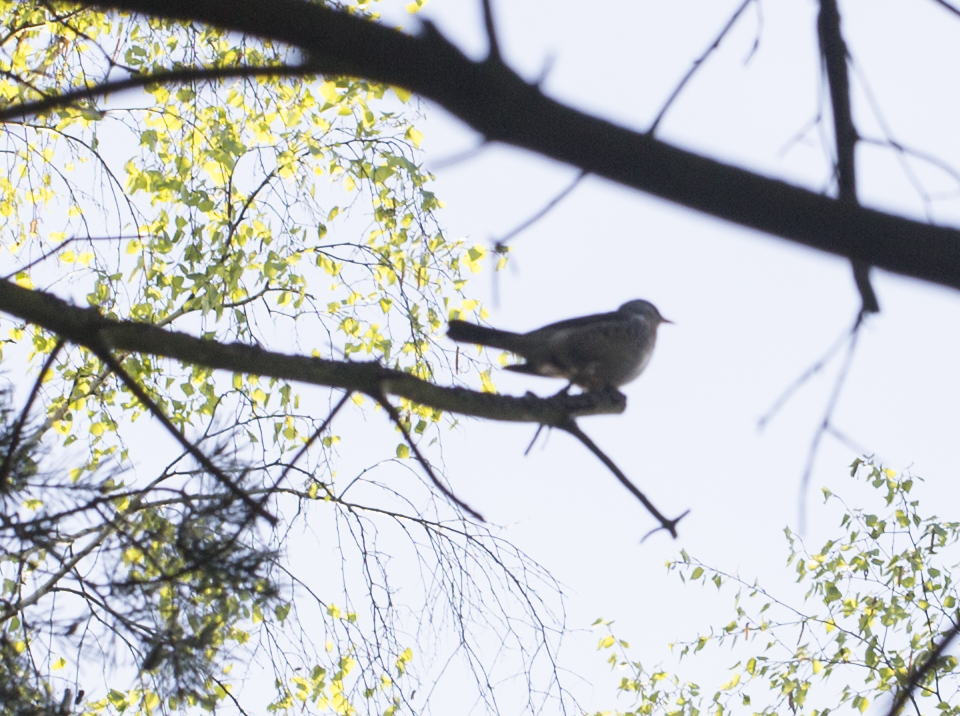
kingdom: Animalia
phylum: Chordata
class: Aves
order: Passeriformes
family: Turdidae
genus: Turdus
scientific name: Turdus pilaris
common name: Fieldfare
